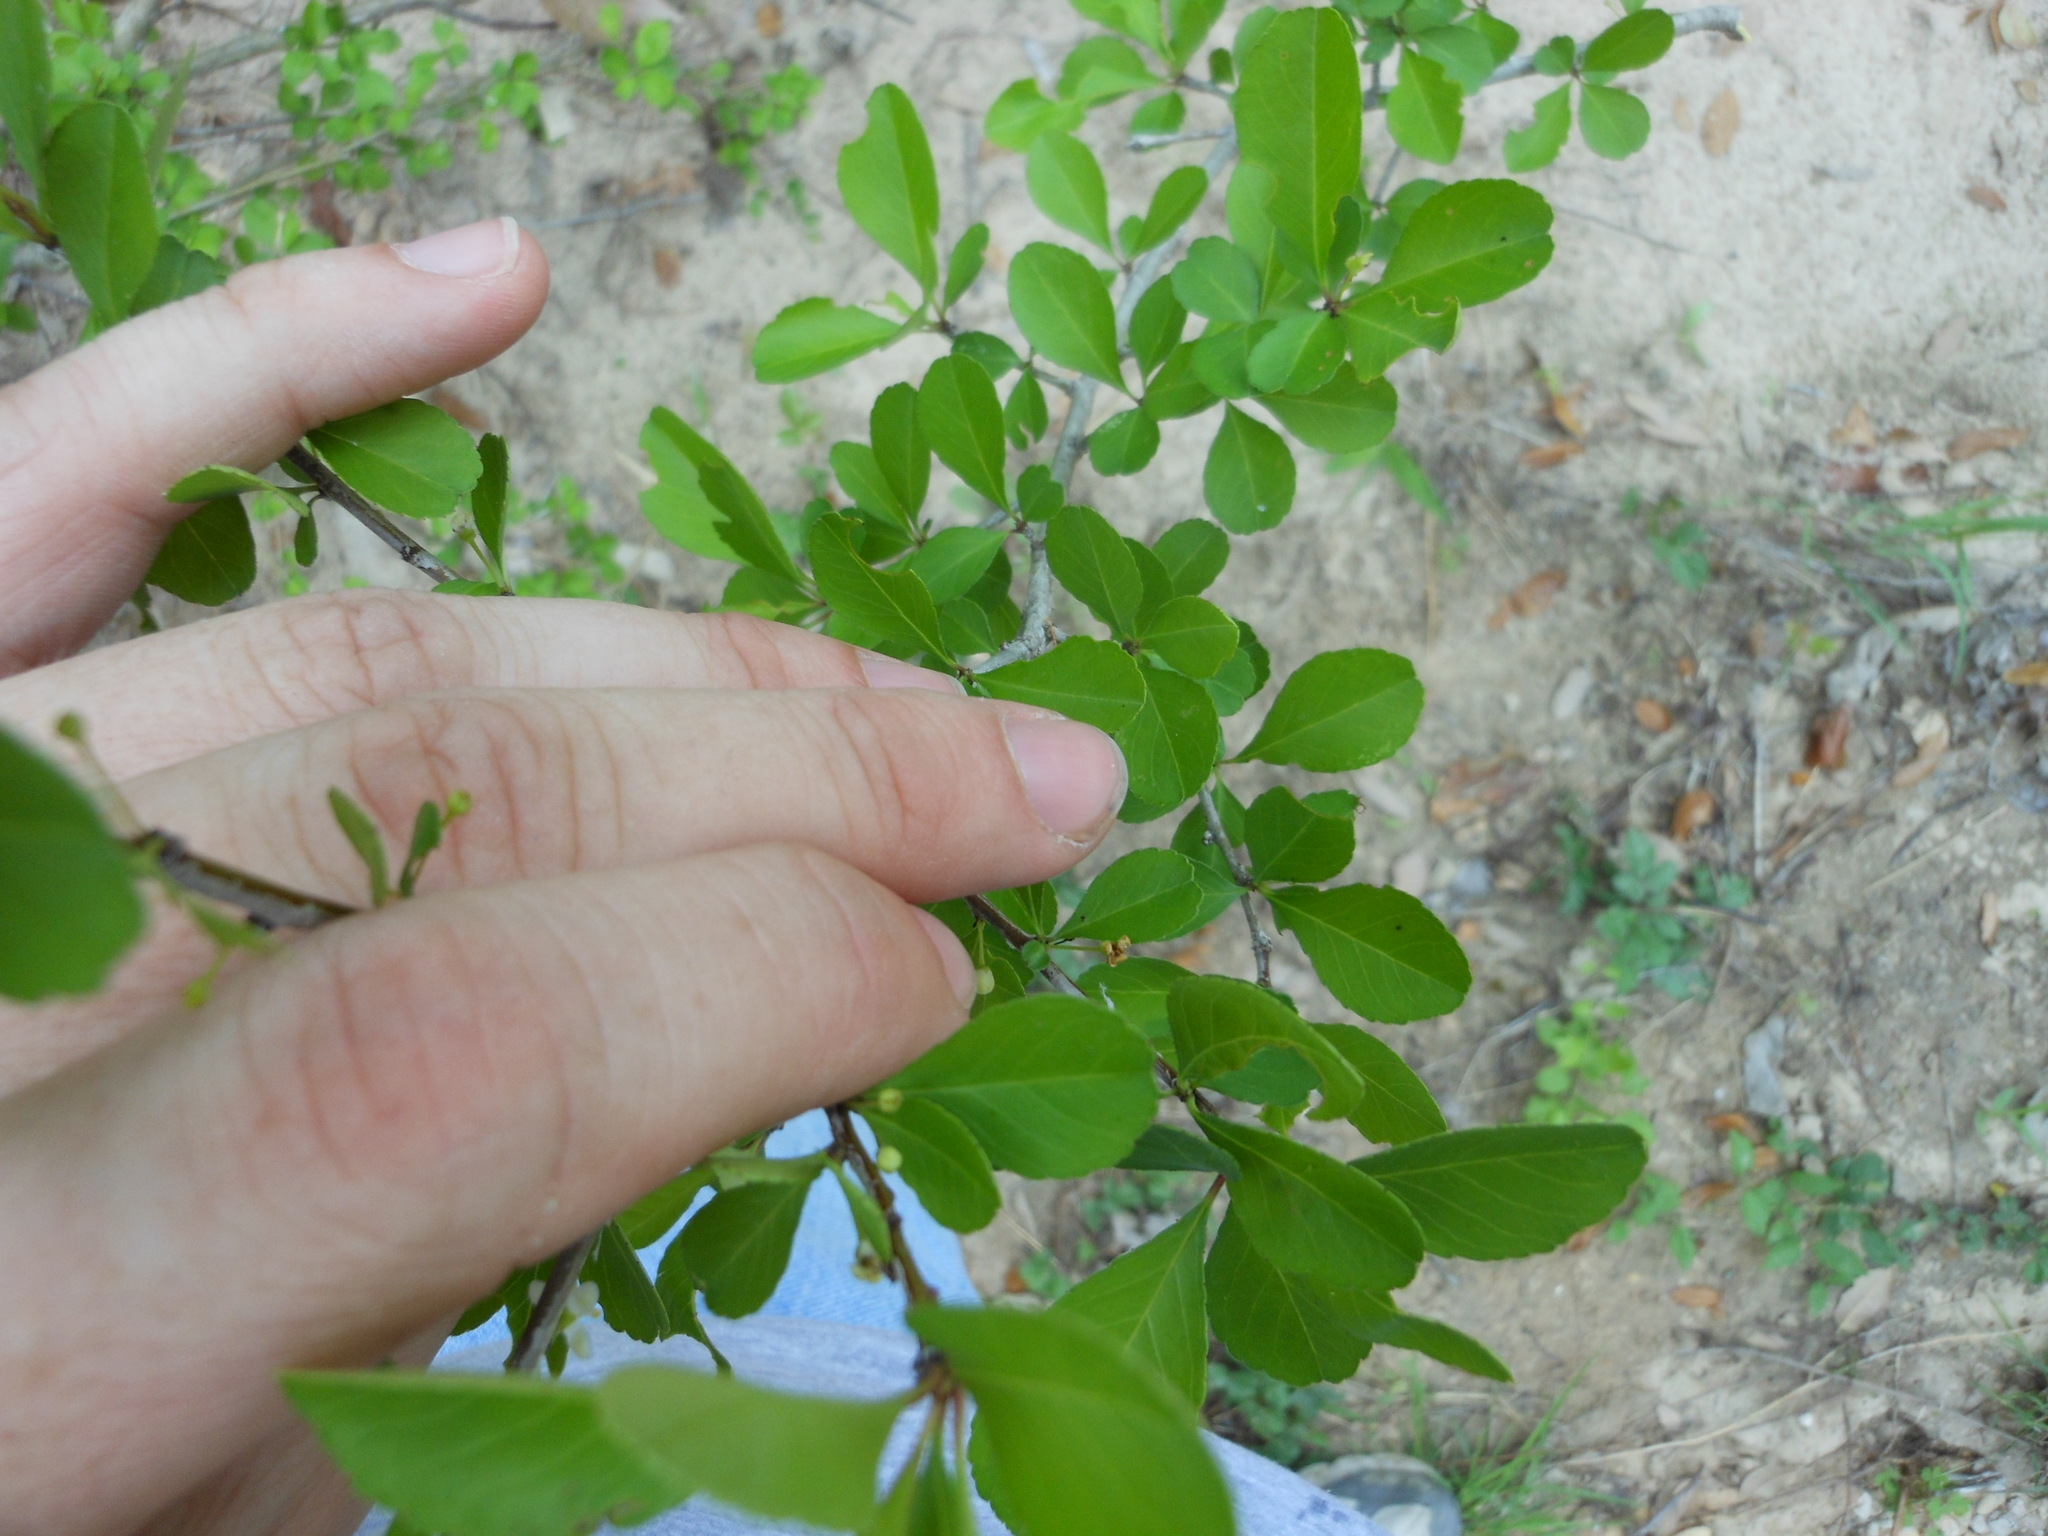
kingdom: Plantae
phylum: Tracheophyta
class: Magnoliopsida
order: Aquifoliales
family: Aquifoliaceae
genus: Ilex
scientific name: Ilex decidua
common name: Possum-haw
